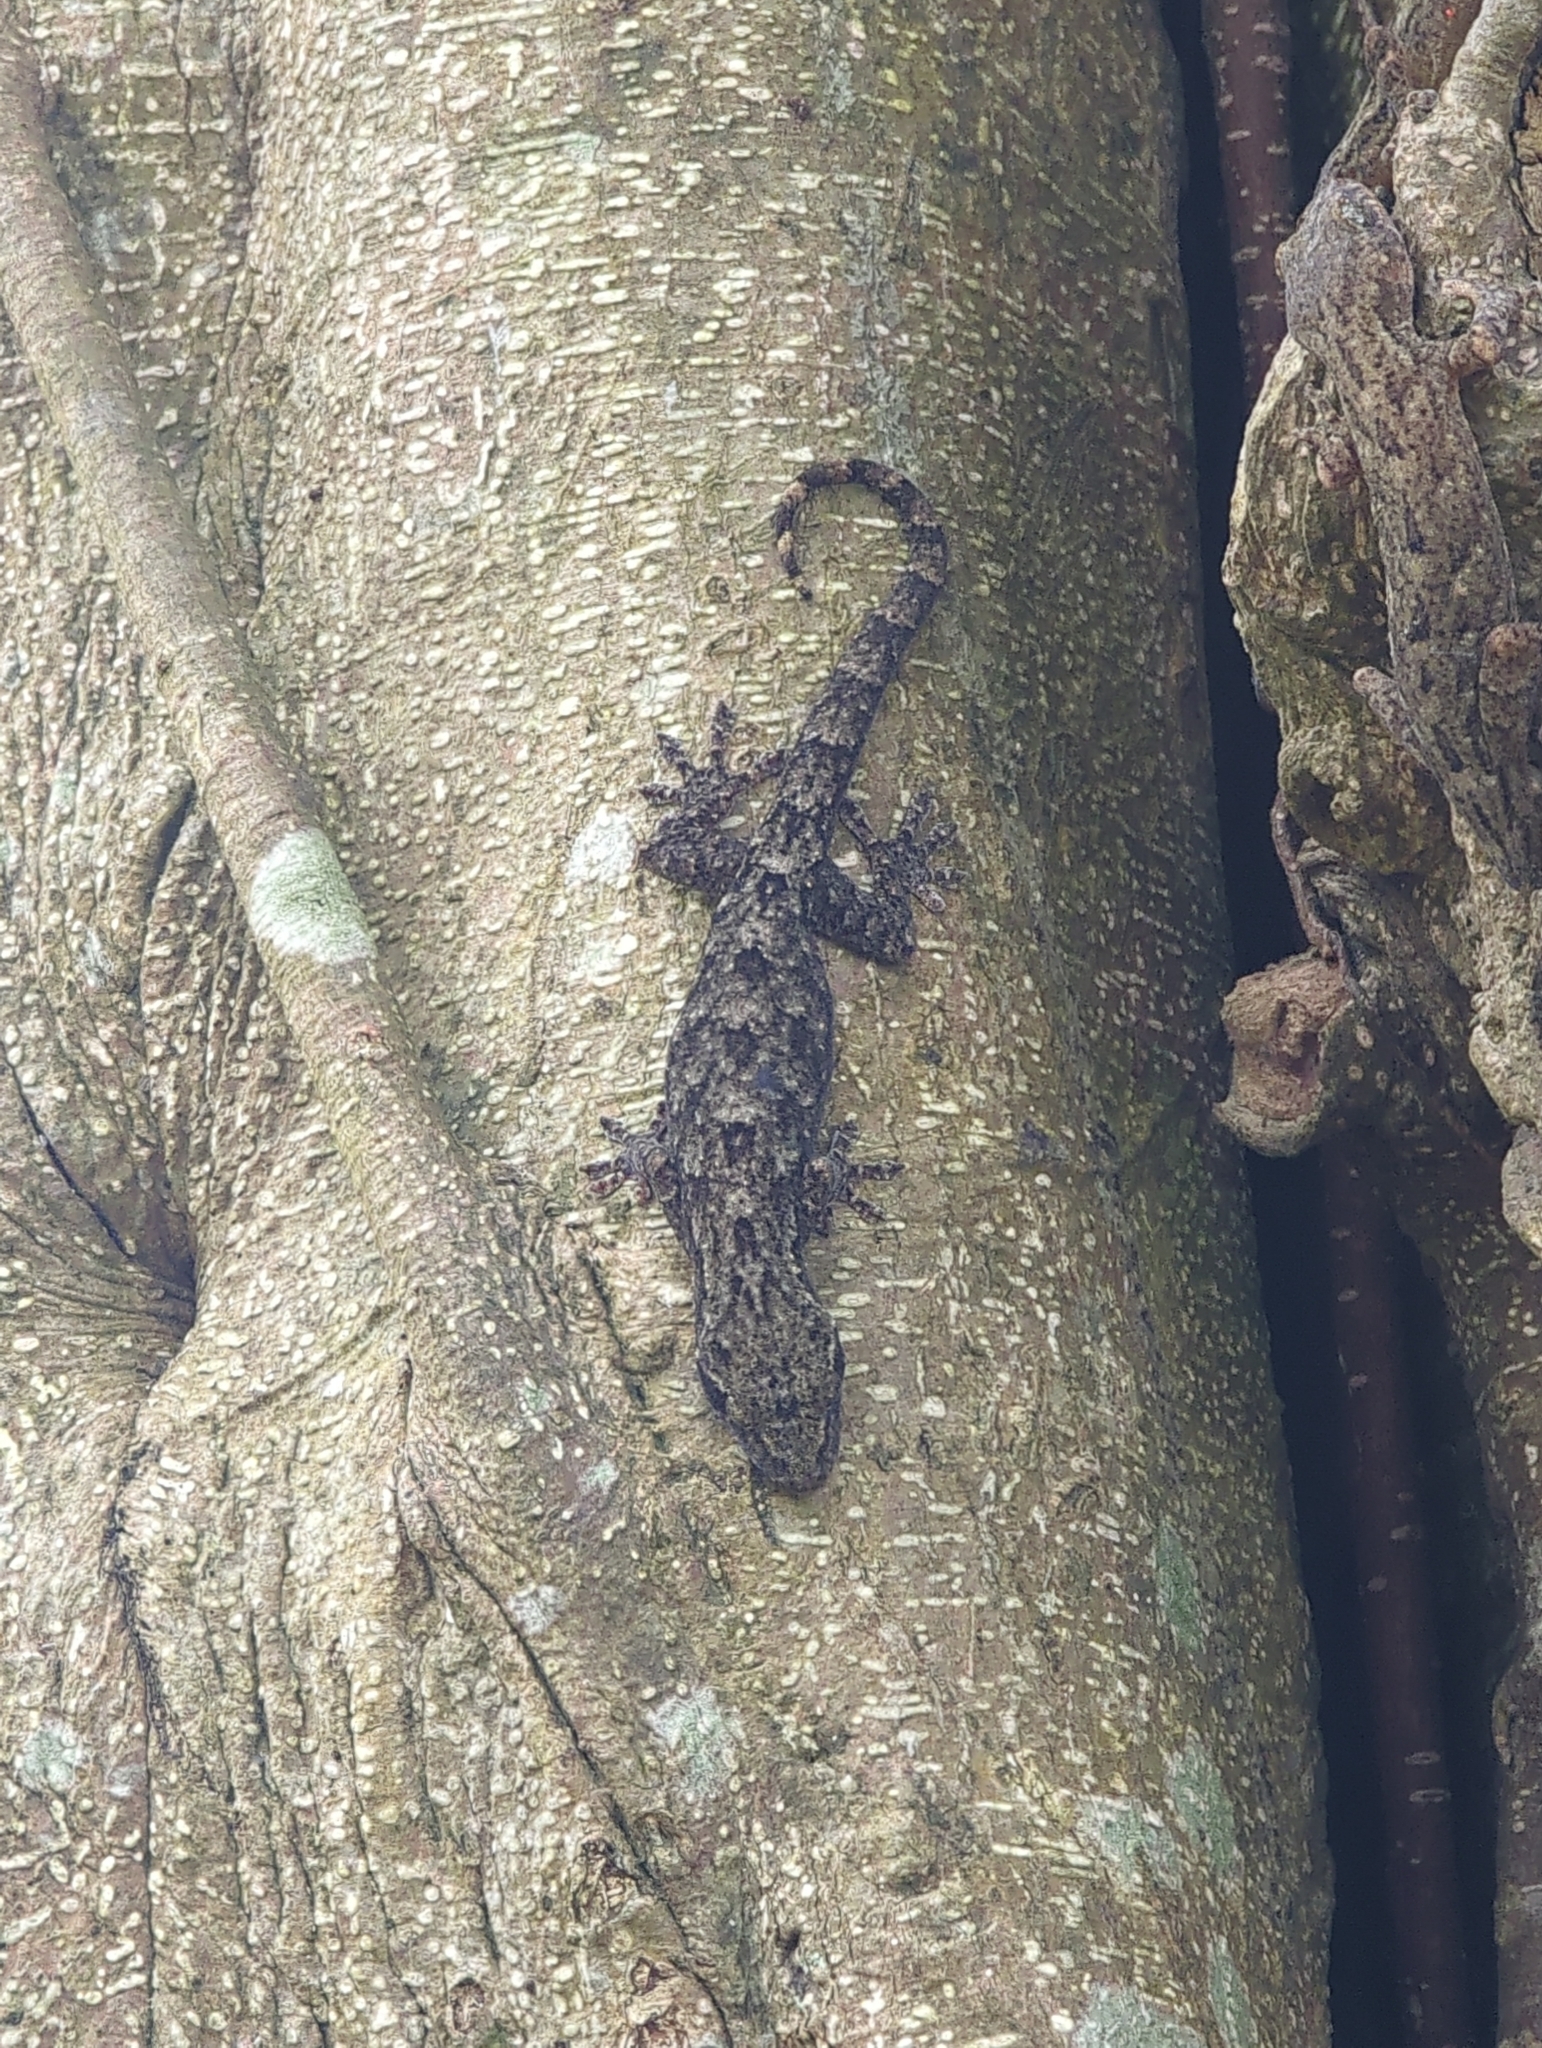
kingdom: Animalia
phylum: Chordata
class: Squamata
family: Gekkonidae
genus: Gekko
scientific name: Gekko hokouensis
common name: Kwangsi gecko
